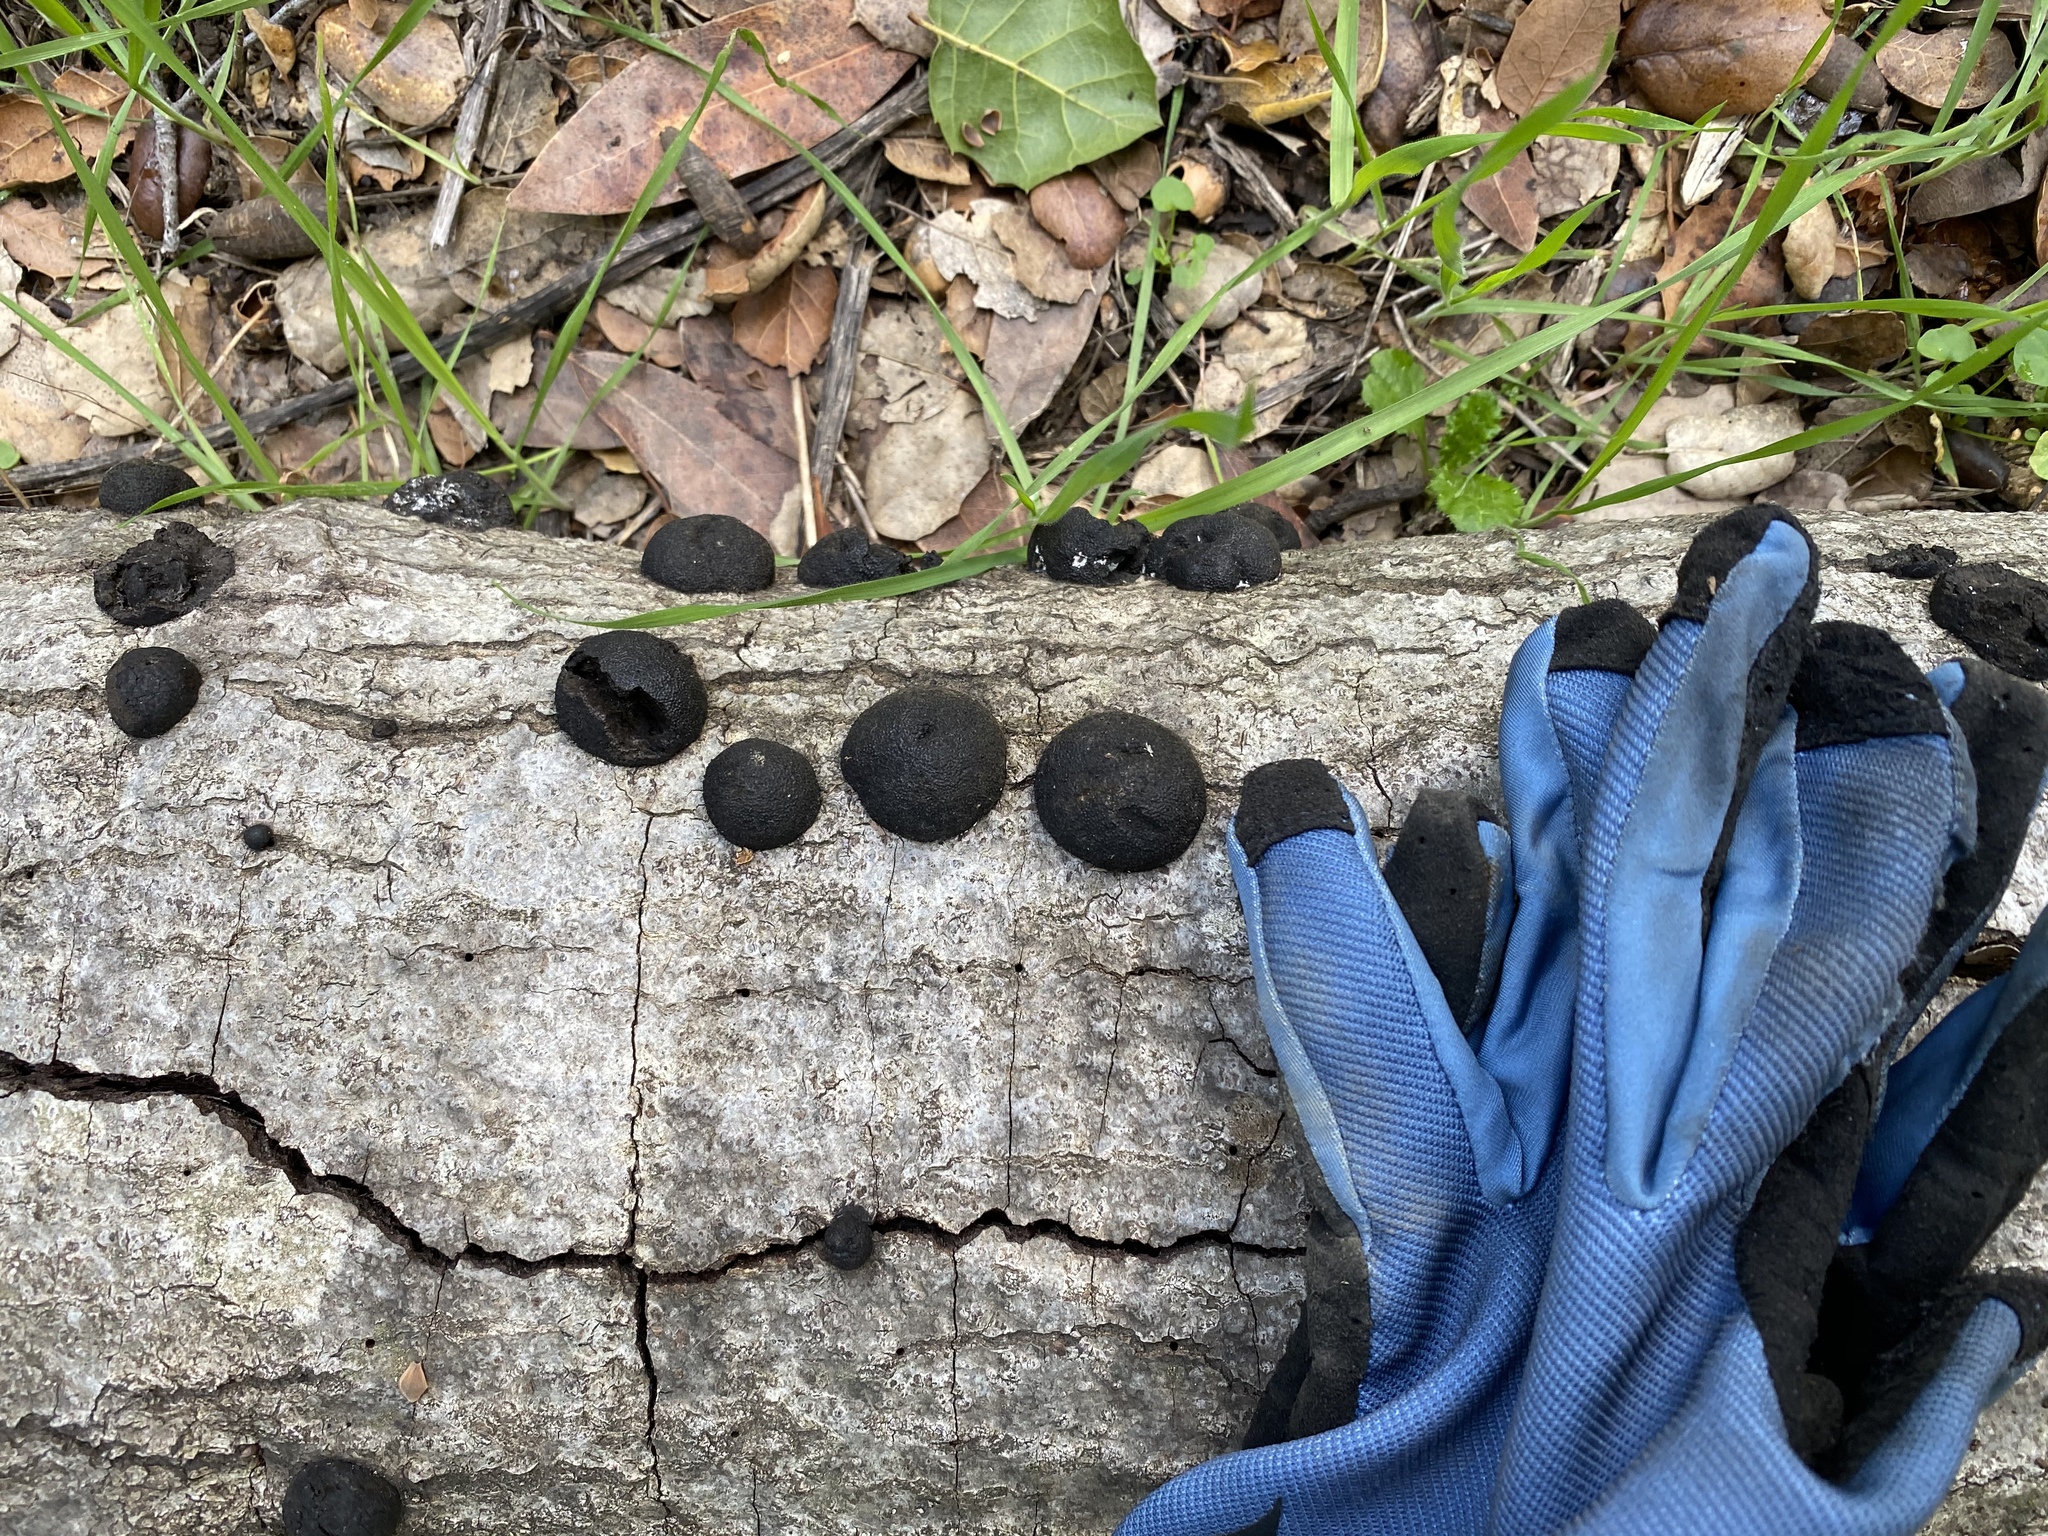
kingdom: Fungi
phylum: Ascomycota
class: Sordariomycetes
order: Xylariales
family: Hypoxylaceae
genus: Annulohypoxylon
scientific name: Annulohypoxylon thouarsianum
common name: Cramp balls
